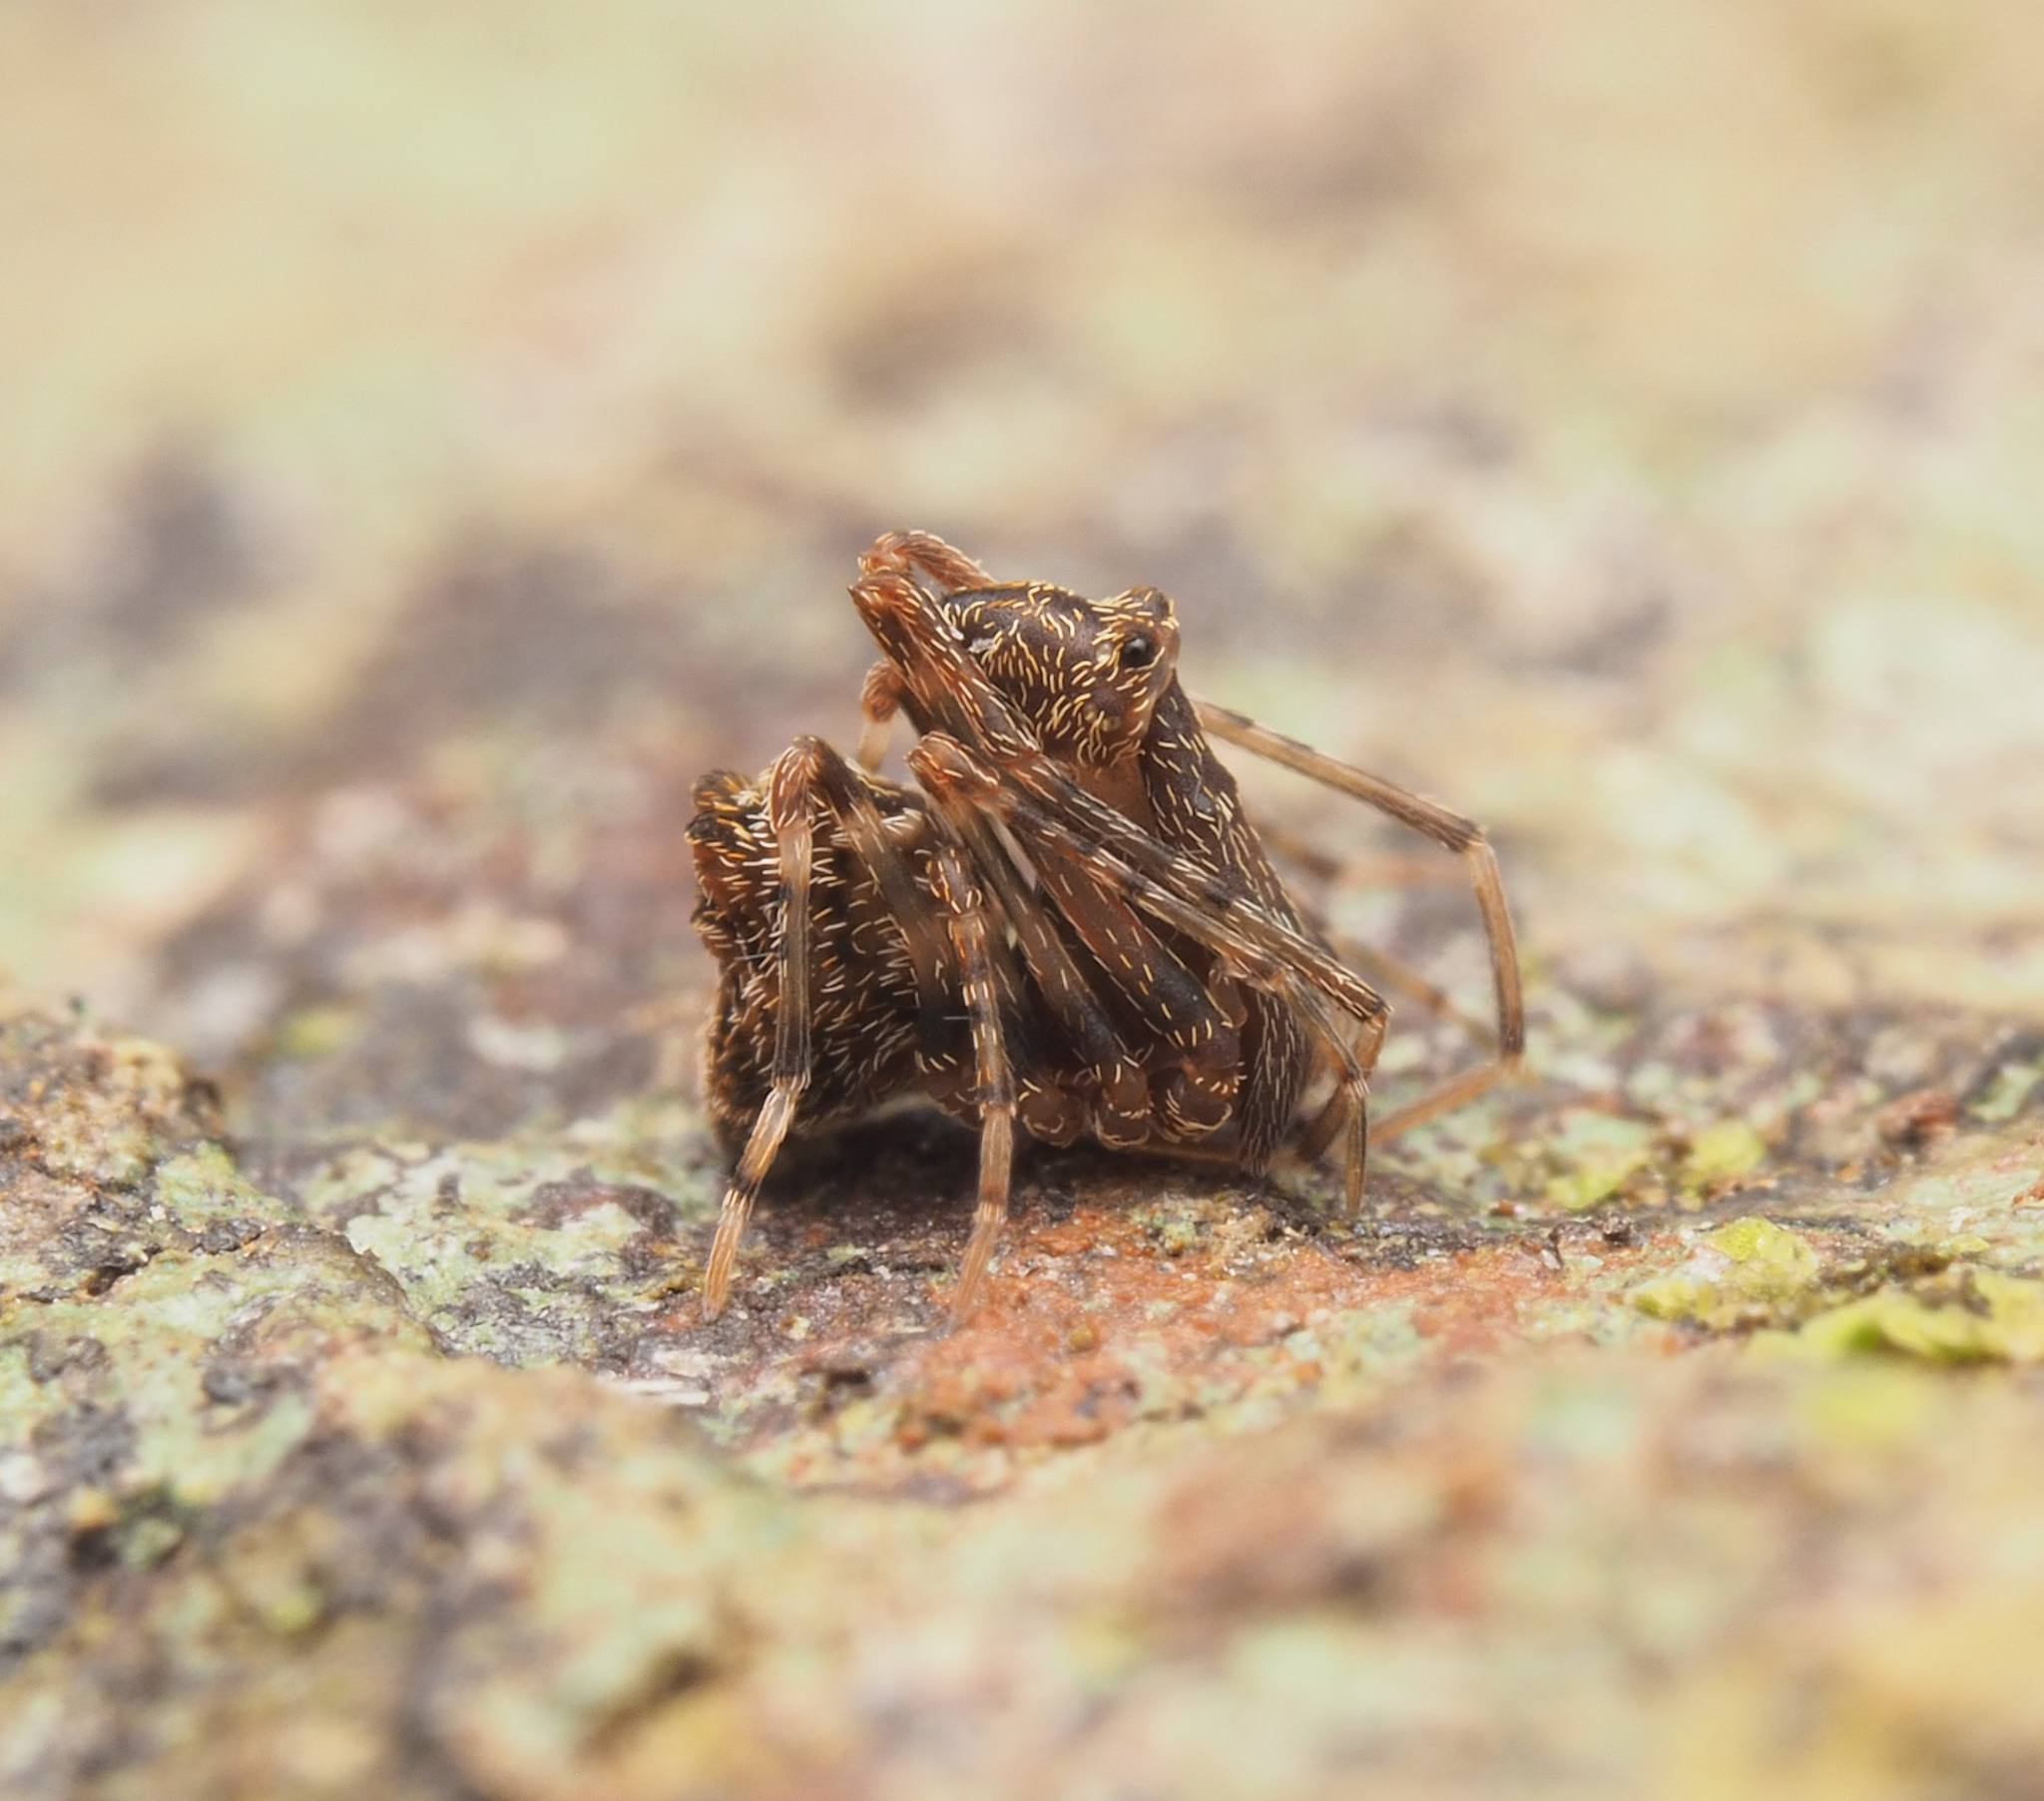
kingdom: Animalia
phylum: Arthropoda
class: Arachnida
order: Araneae
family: Archaeidae
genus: Austrarchaea
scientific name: Austrarchaea judyae
